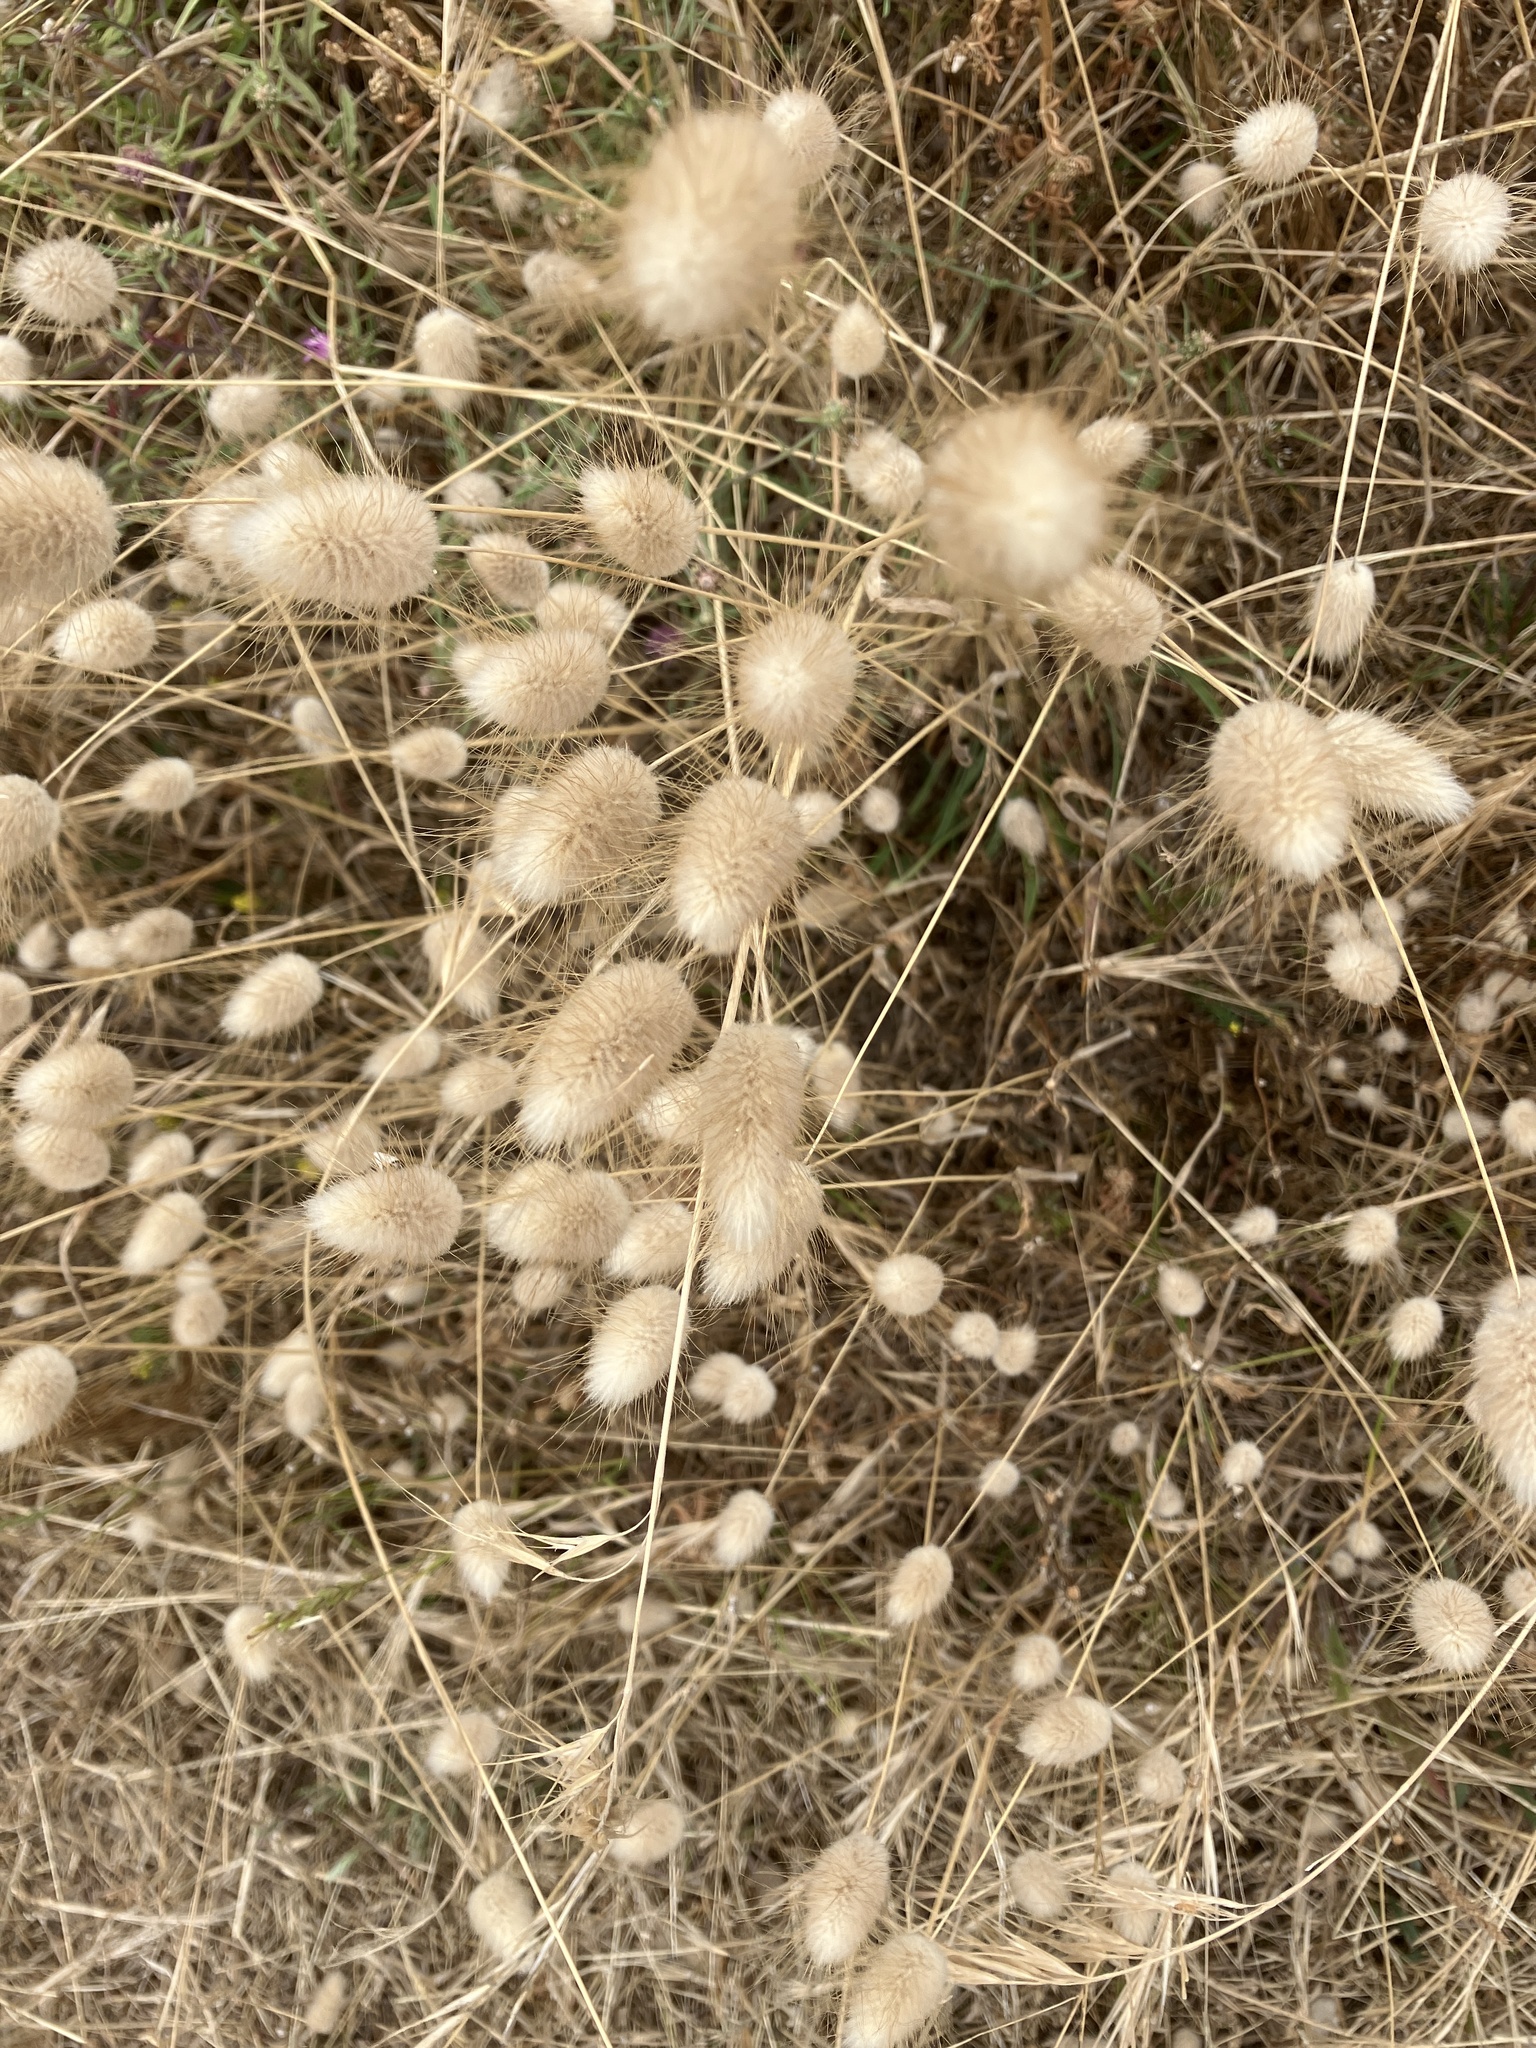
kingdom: Plantae
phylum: Tracheophyta
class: Liliopsida
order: Poales
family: Poaceae
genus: Lagurus
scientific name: Lagurus ovatus
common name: Hare's-tail
